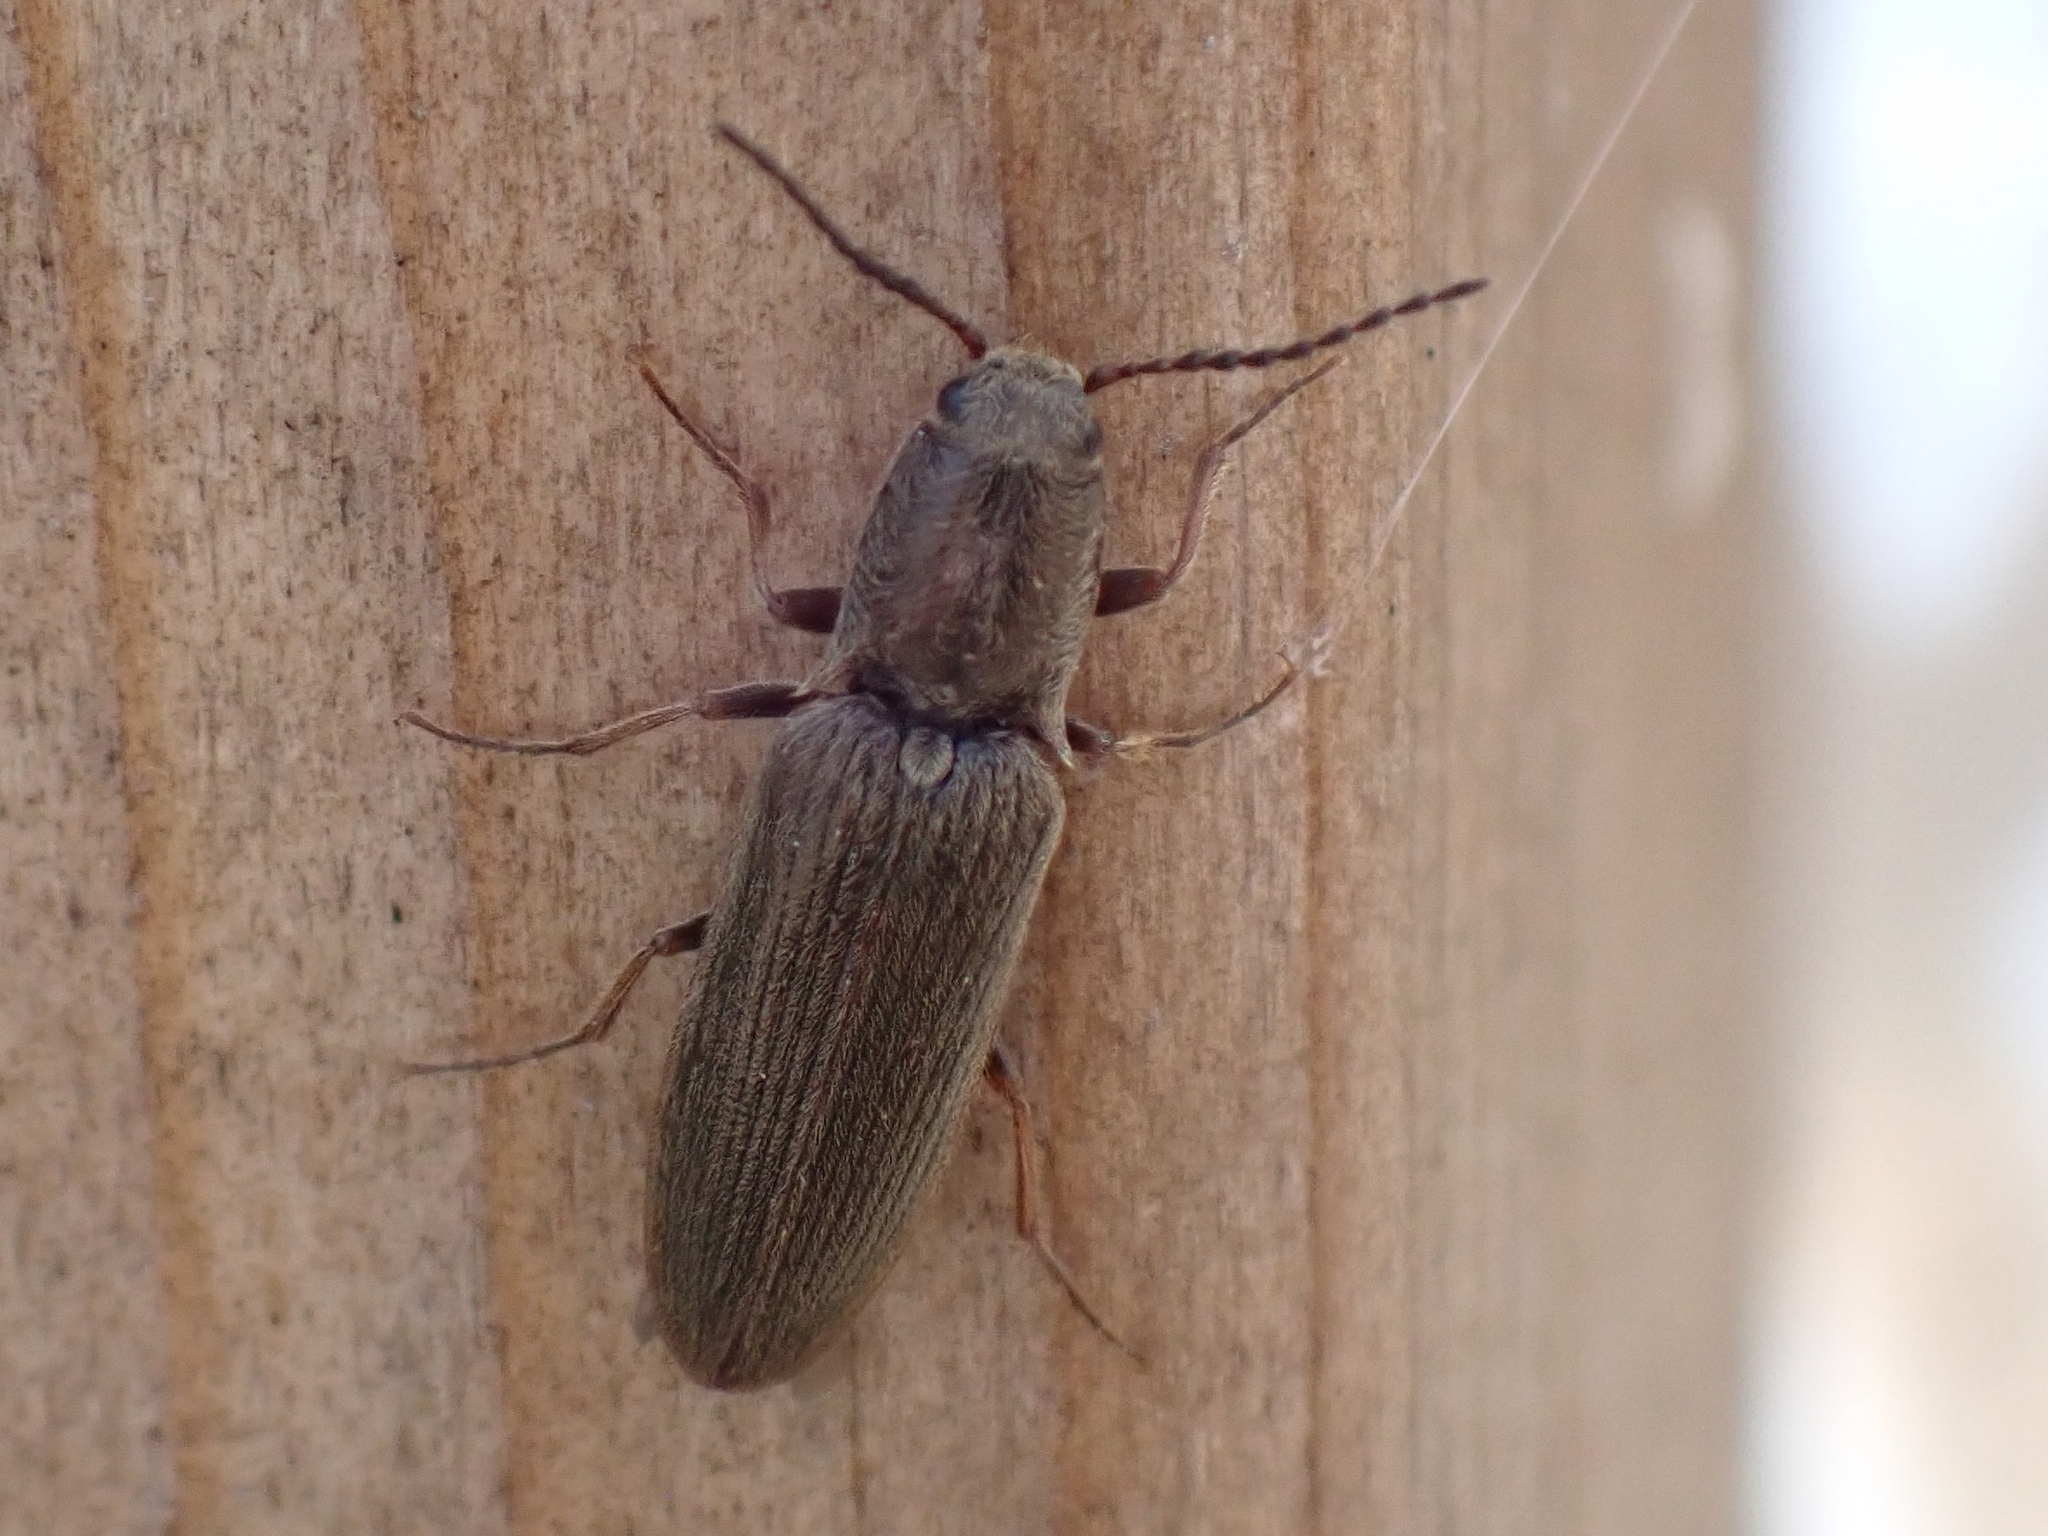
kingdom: Animalia
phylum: Arthropoda
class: Insecta
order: Coleoptera
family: Elateridae
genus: Sylvanelater
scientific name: Sylvanelater cylindriformis
